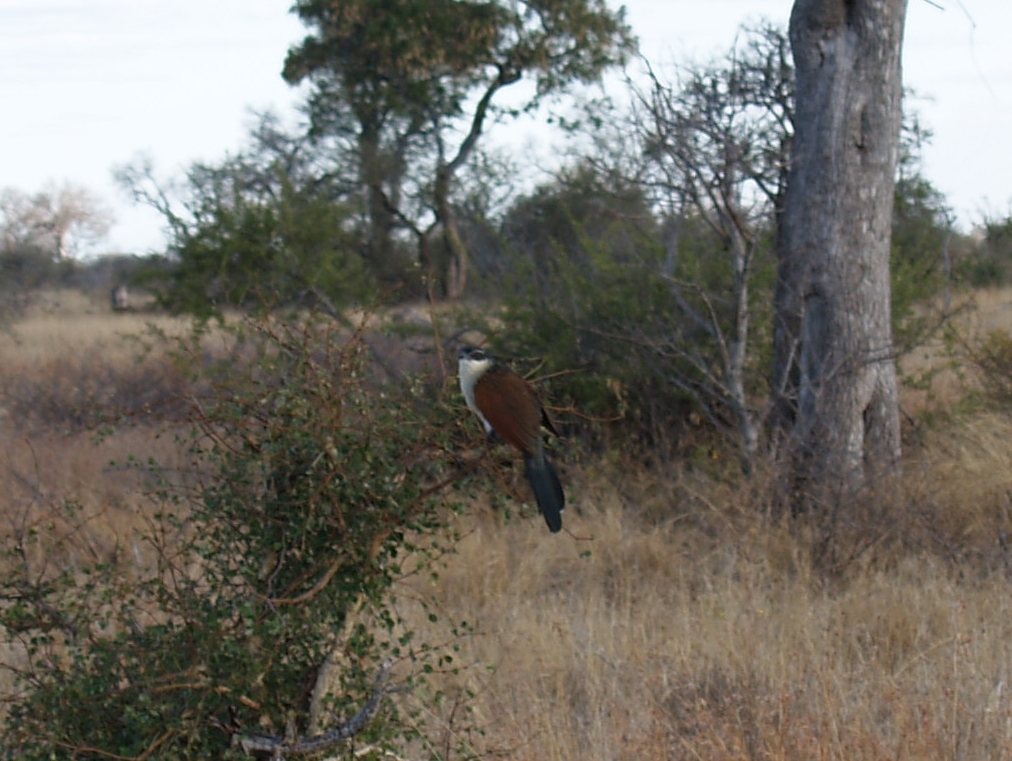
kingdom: Animalia
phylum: Chordata
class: Aves
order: Cuculiformes
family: Cuculidae
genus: Centropus
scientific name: Centropus superciliosus
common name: White-browed coucal
